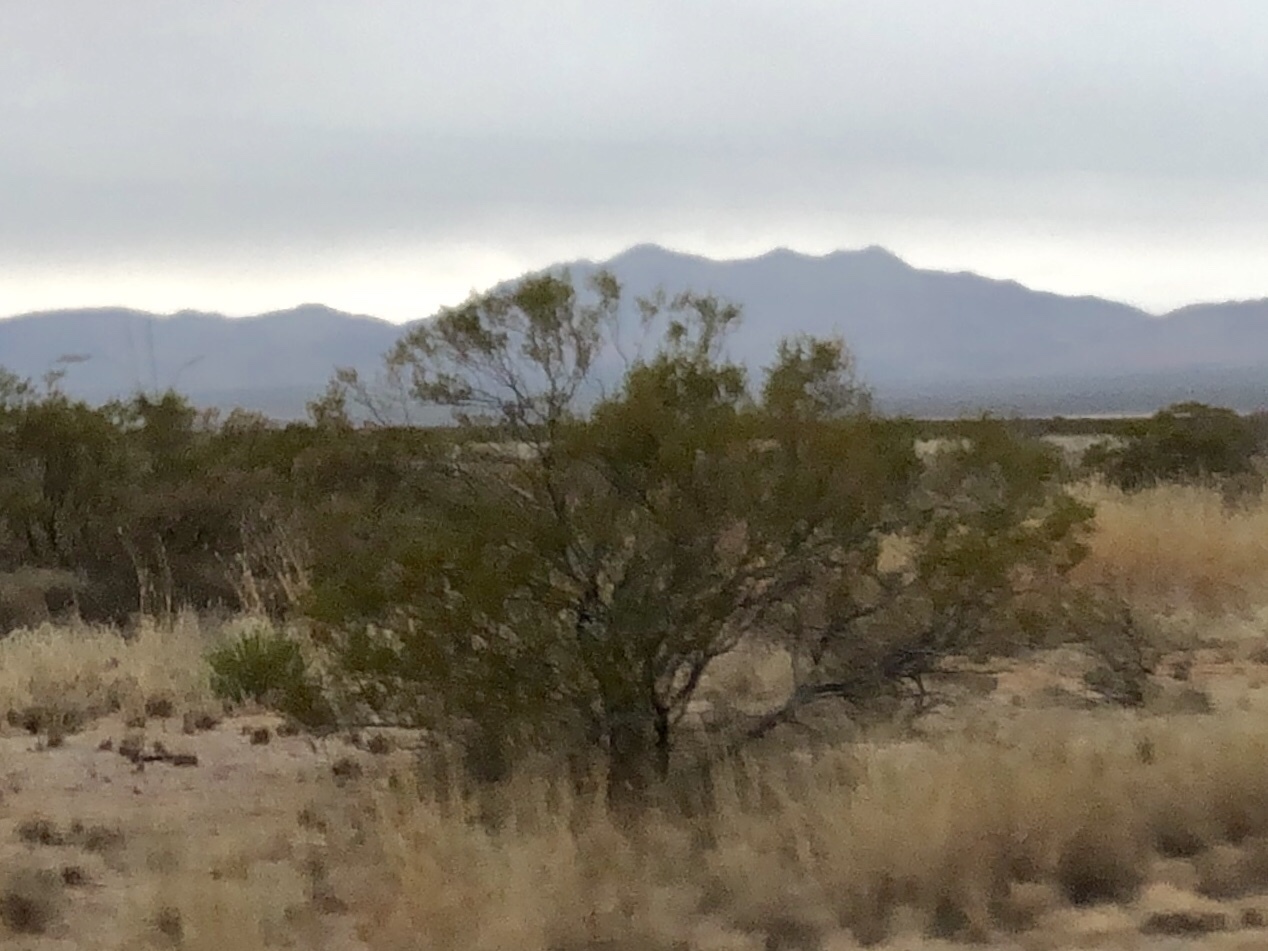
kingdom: Plantae
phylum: Tracheophyta
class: Magnoliopsida
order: Zygophyllales
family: Zygophyllaceae
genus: Larrea
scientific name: Larrea tridentata
